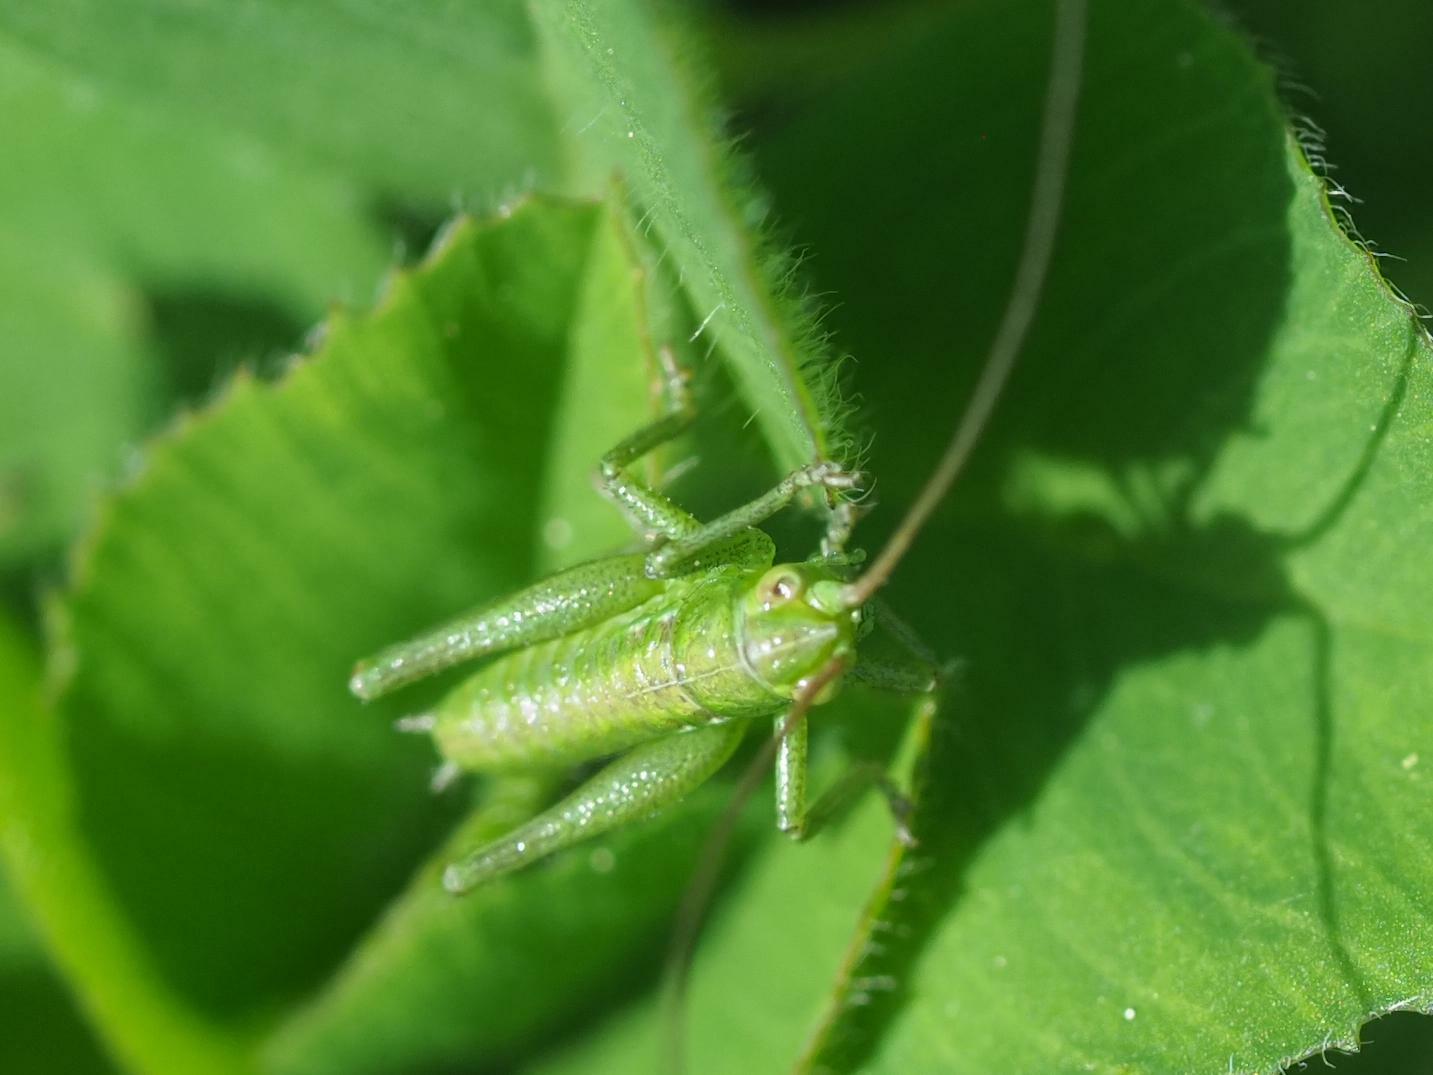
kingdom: Animalia
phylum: Arthropoda
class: Insecta
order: Orthoptera
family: Tettigoniidae
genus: Tettigonia
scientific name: Tettigonia viridissima
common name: Great green bush-cricket
